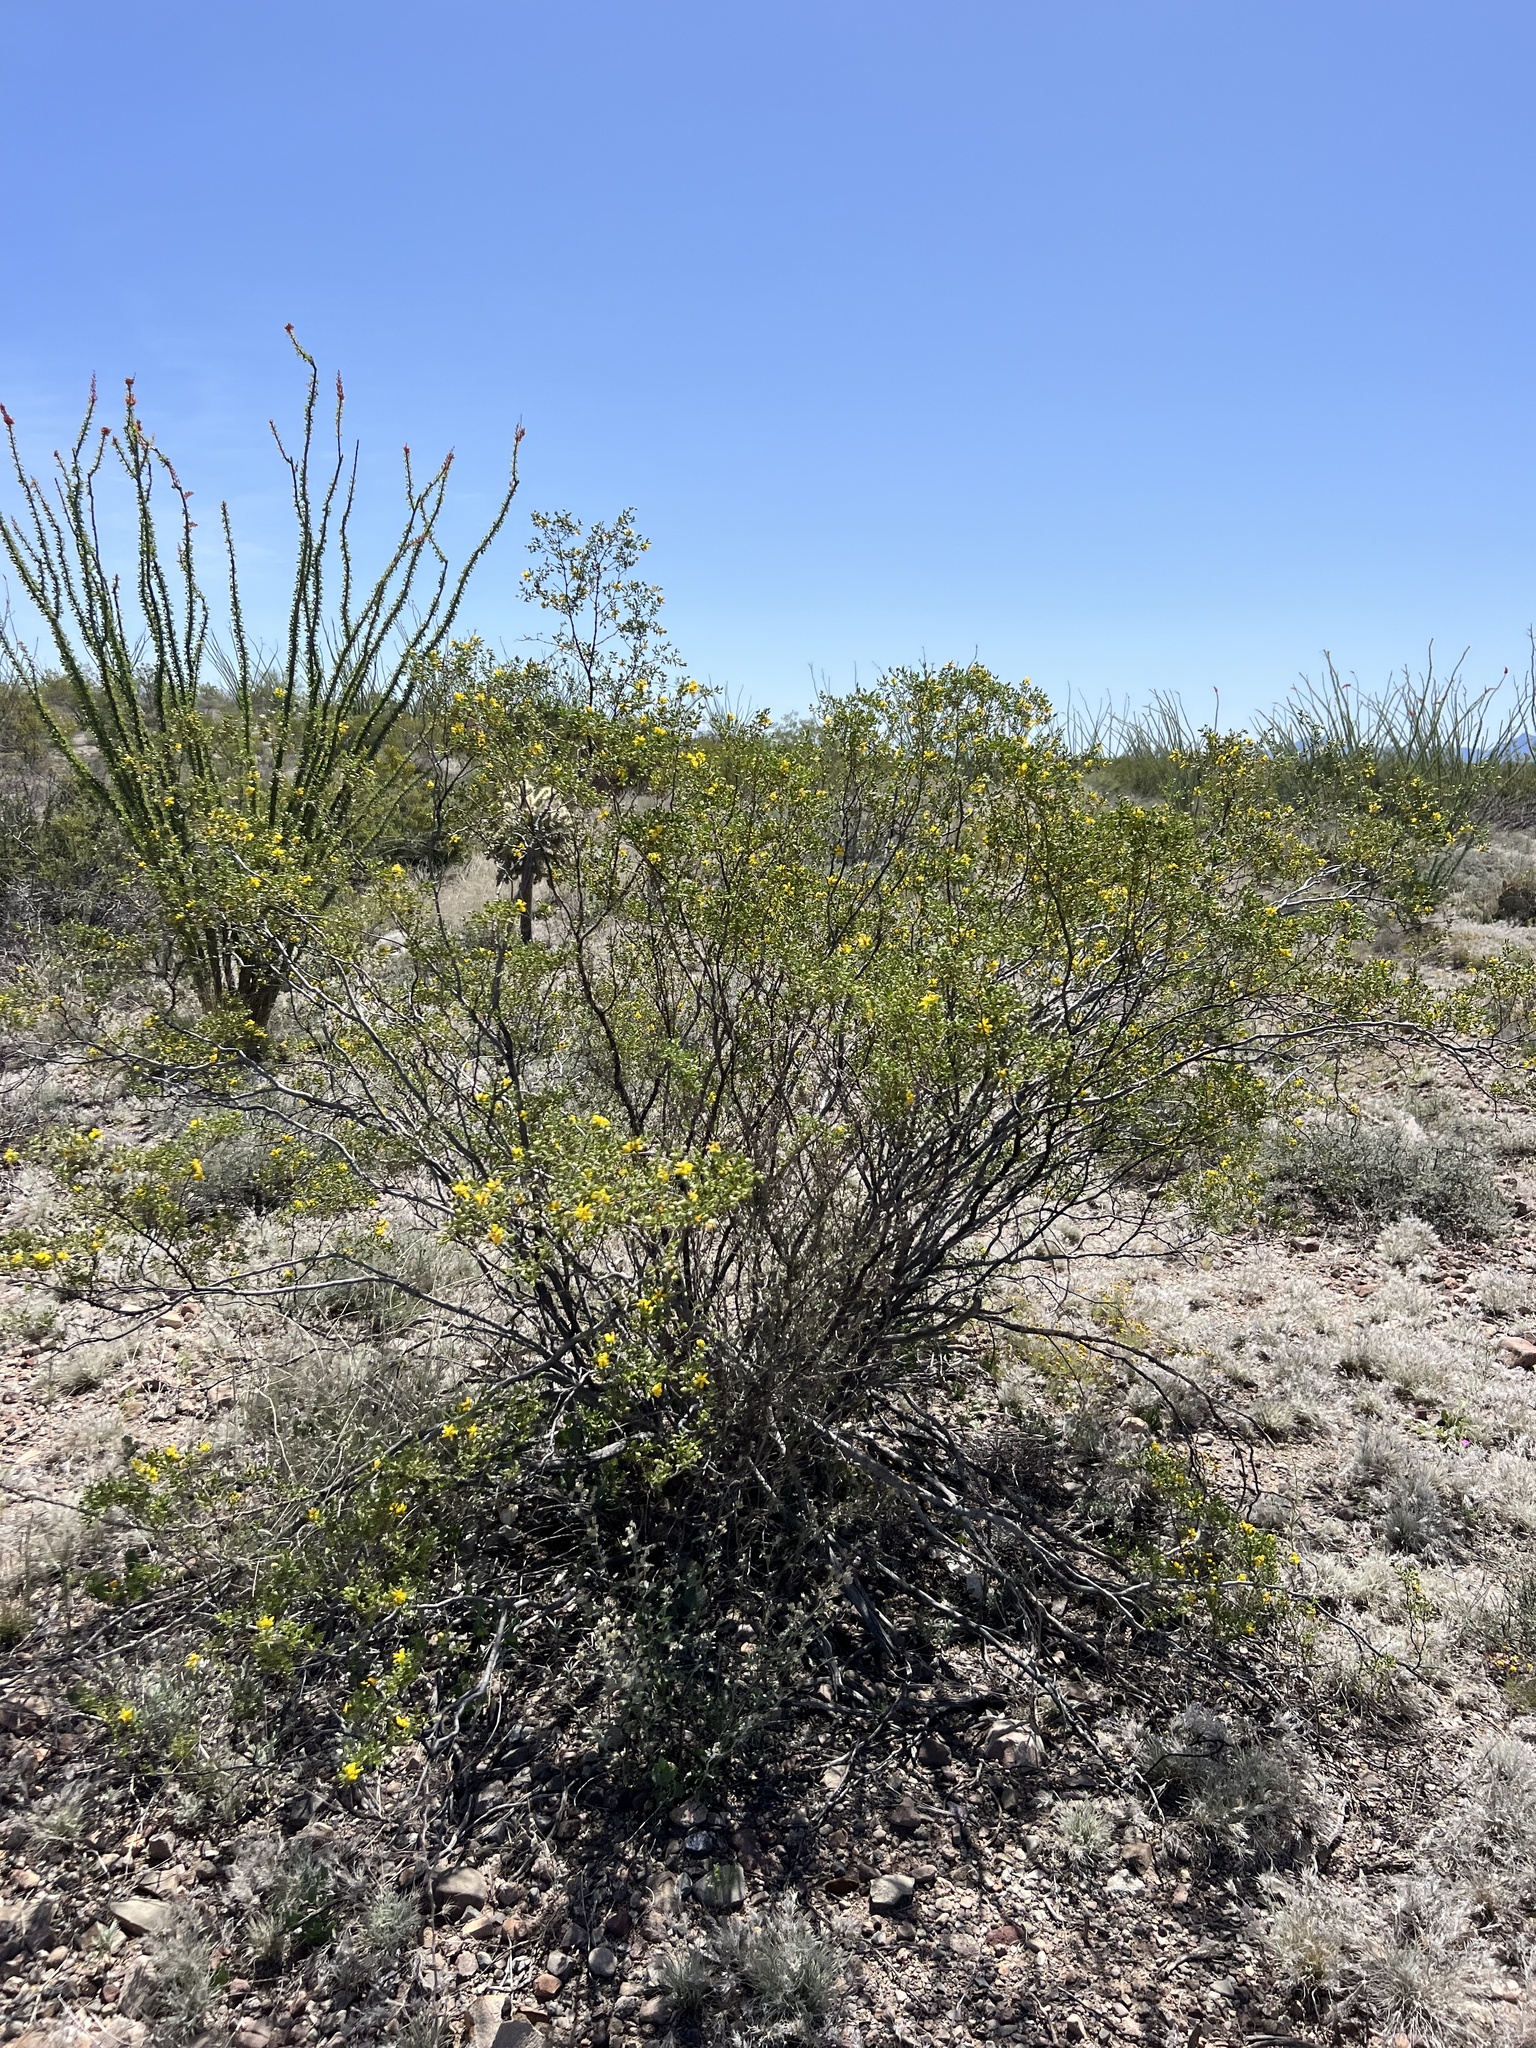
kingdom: Plantae
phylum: Tracheophyta
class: Magnoliopsida
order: Zygophyllales
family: Zygophyllaceae
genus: Larrea
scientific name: Larrea tridentata
